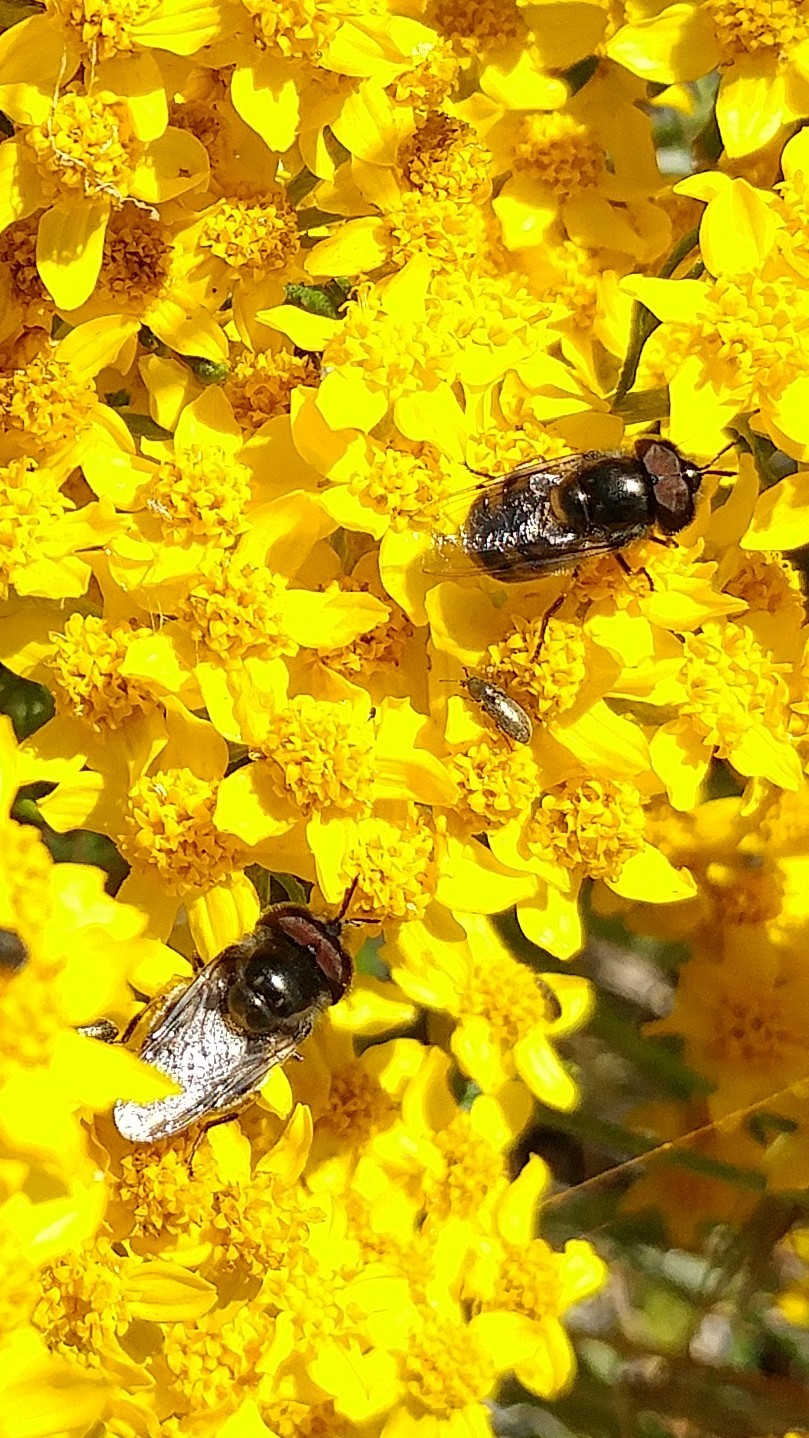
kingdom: Animalia
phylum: Arthropoda
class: Insecta
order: Diptera
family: Syrphidae
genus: Copestylum
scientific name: Copestylum lentum
